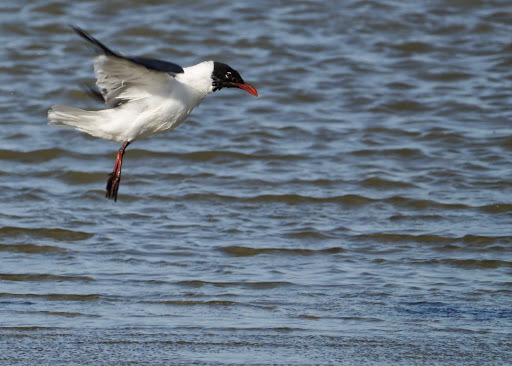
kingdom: Animalia
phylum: Chordata
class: Aves
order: Charadriiformes
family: Laridae
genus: Leucophaeus
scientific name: Leucophaeus atricilla
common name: Laughing gull
